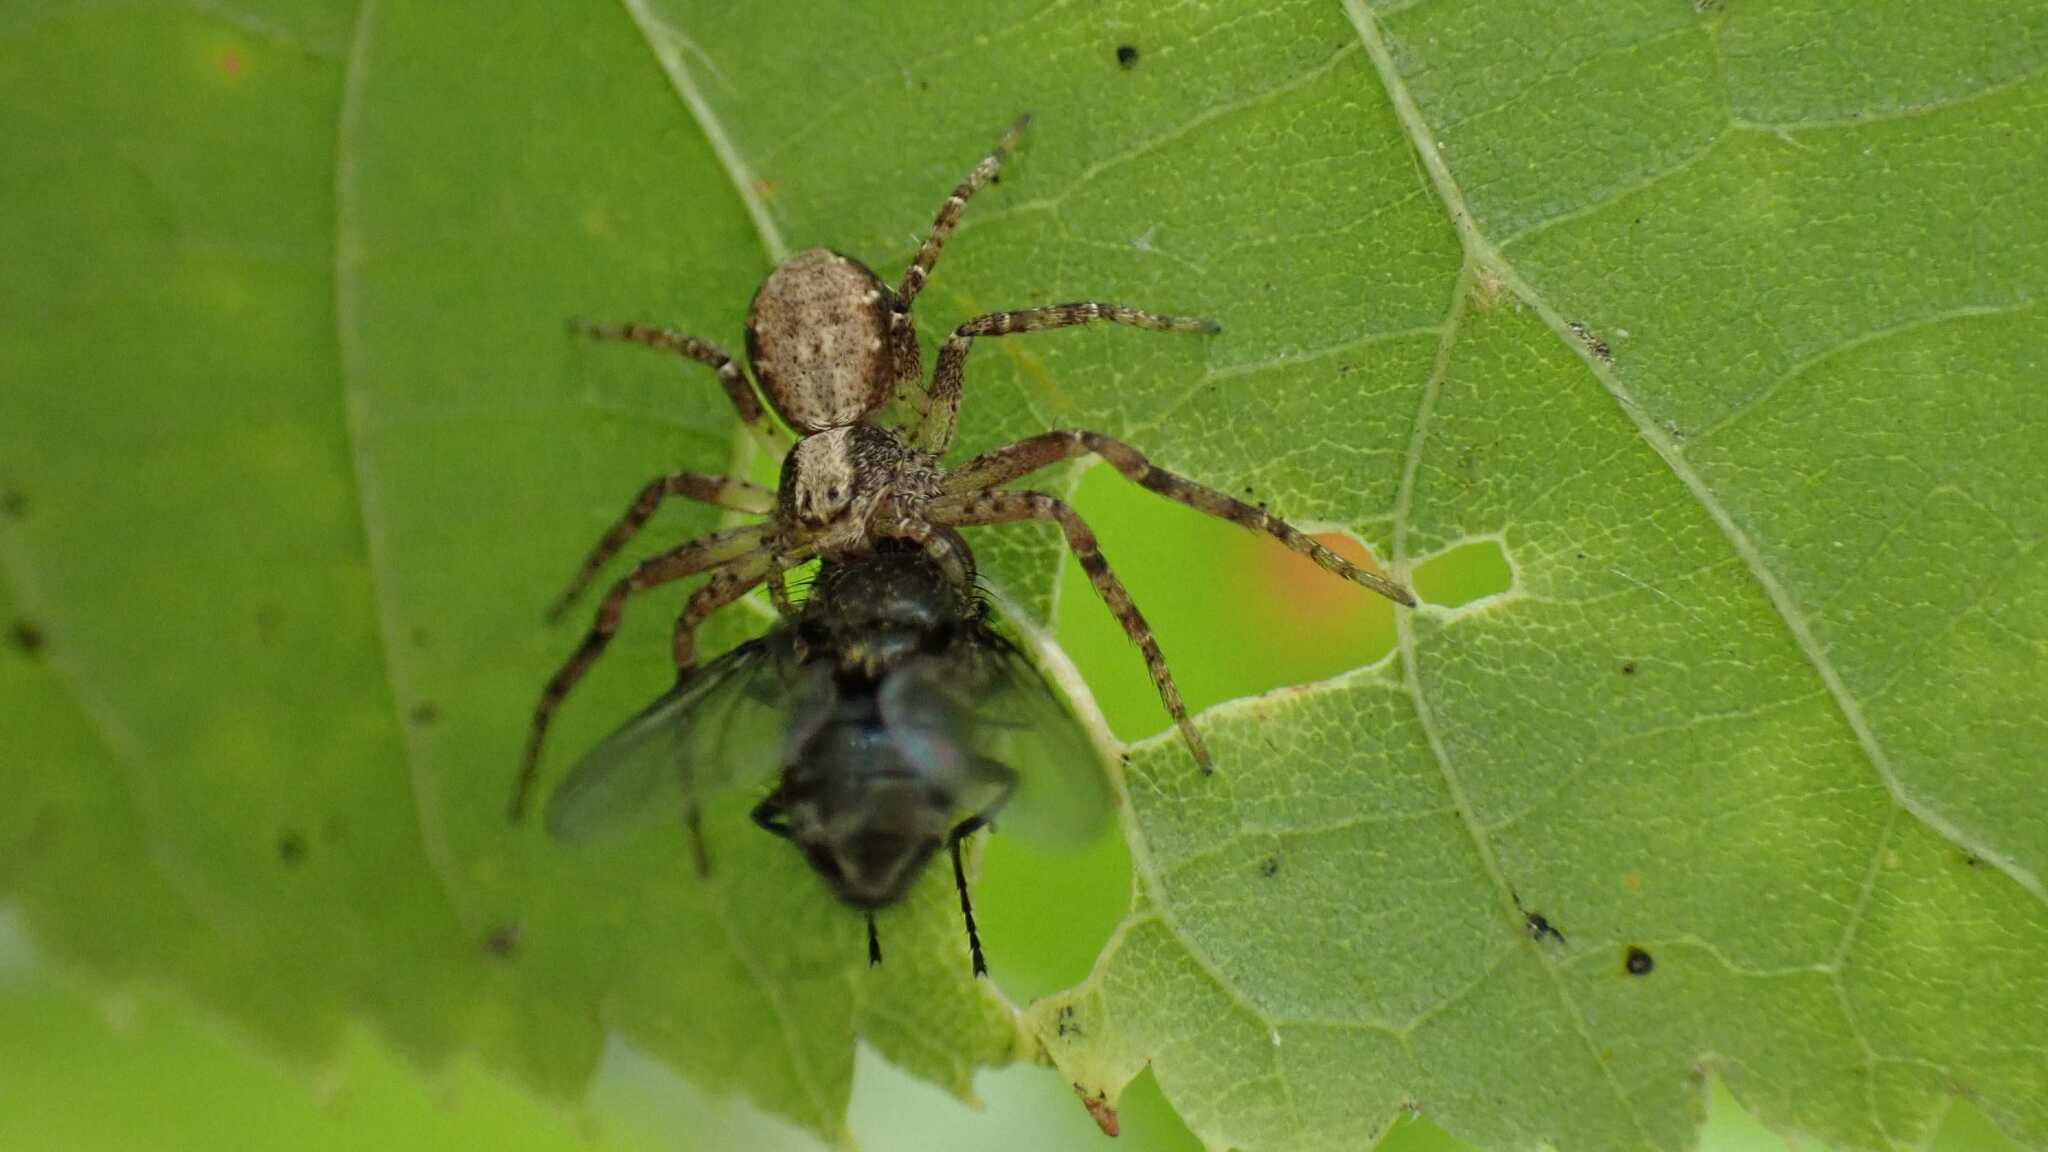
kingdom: Animalia
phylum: Arthropoda
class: Arachnida
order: Araneae
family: Philodromidae
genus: Philodromus
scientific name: Philodromus
